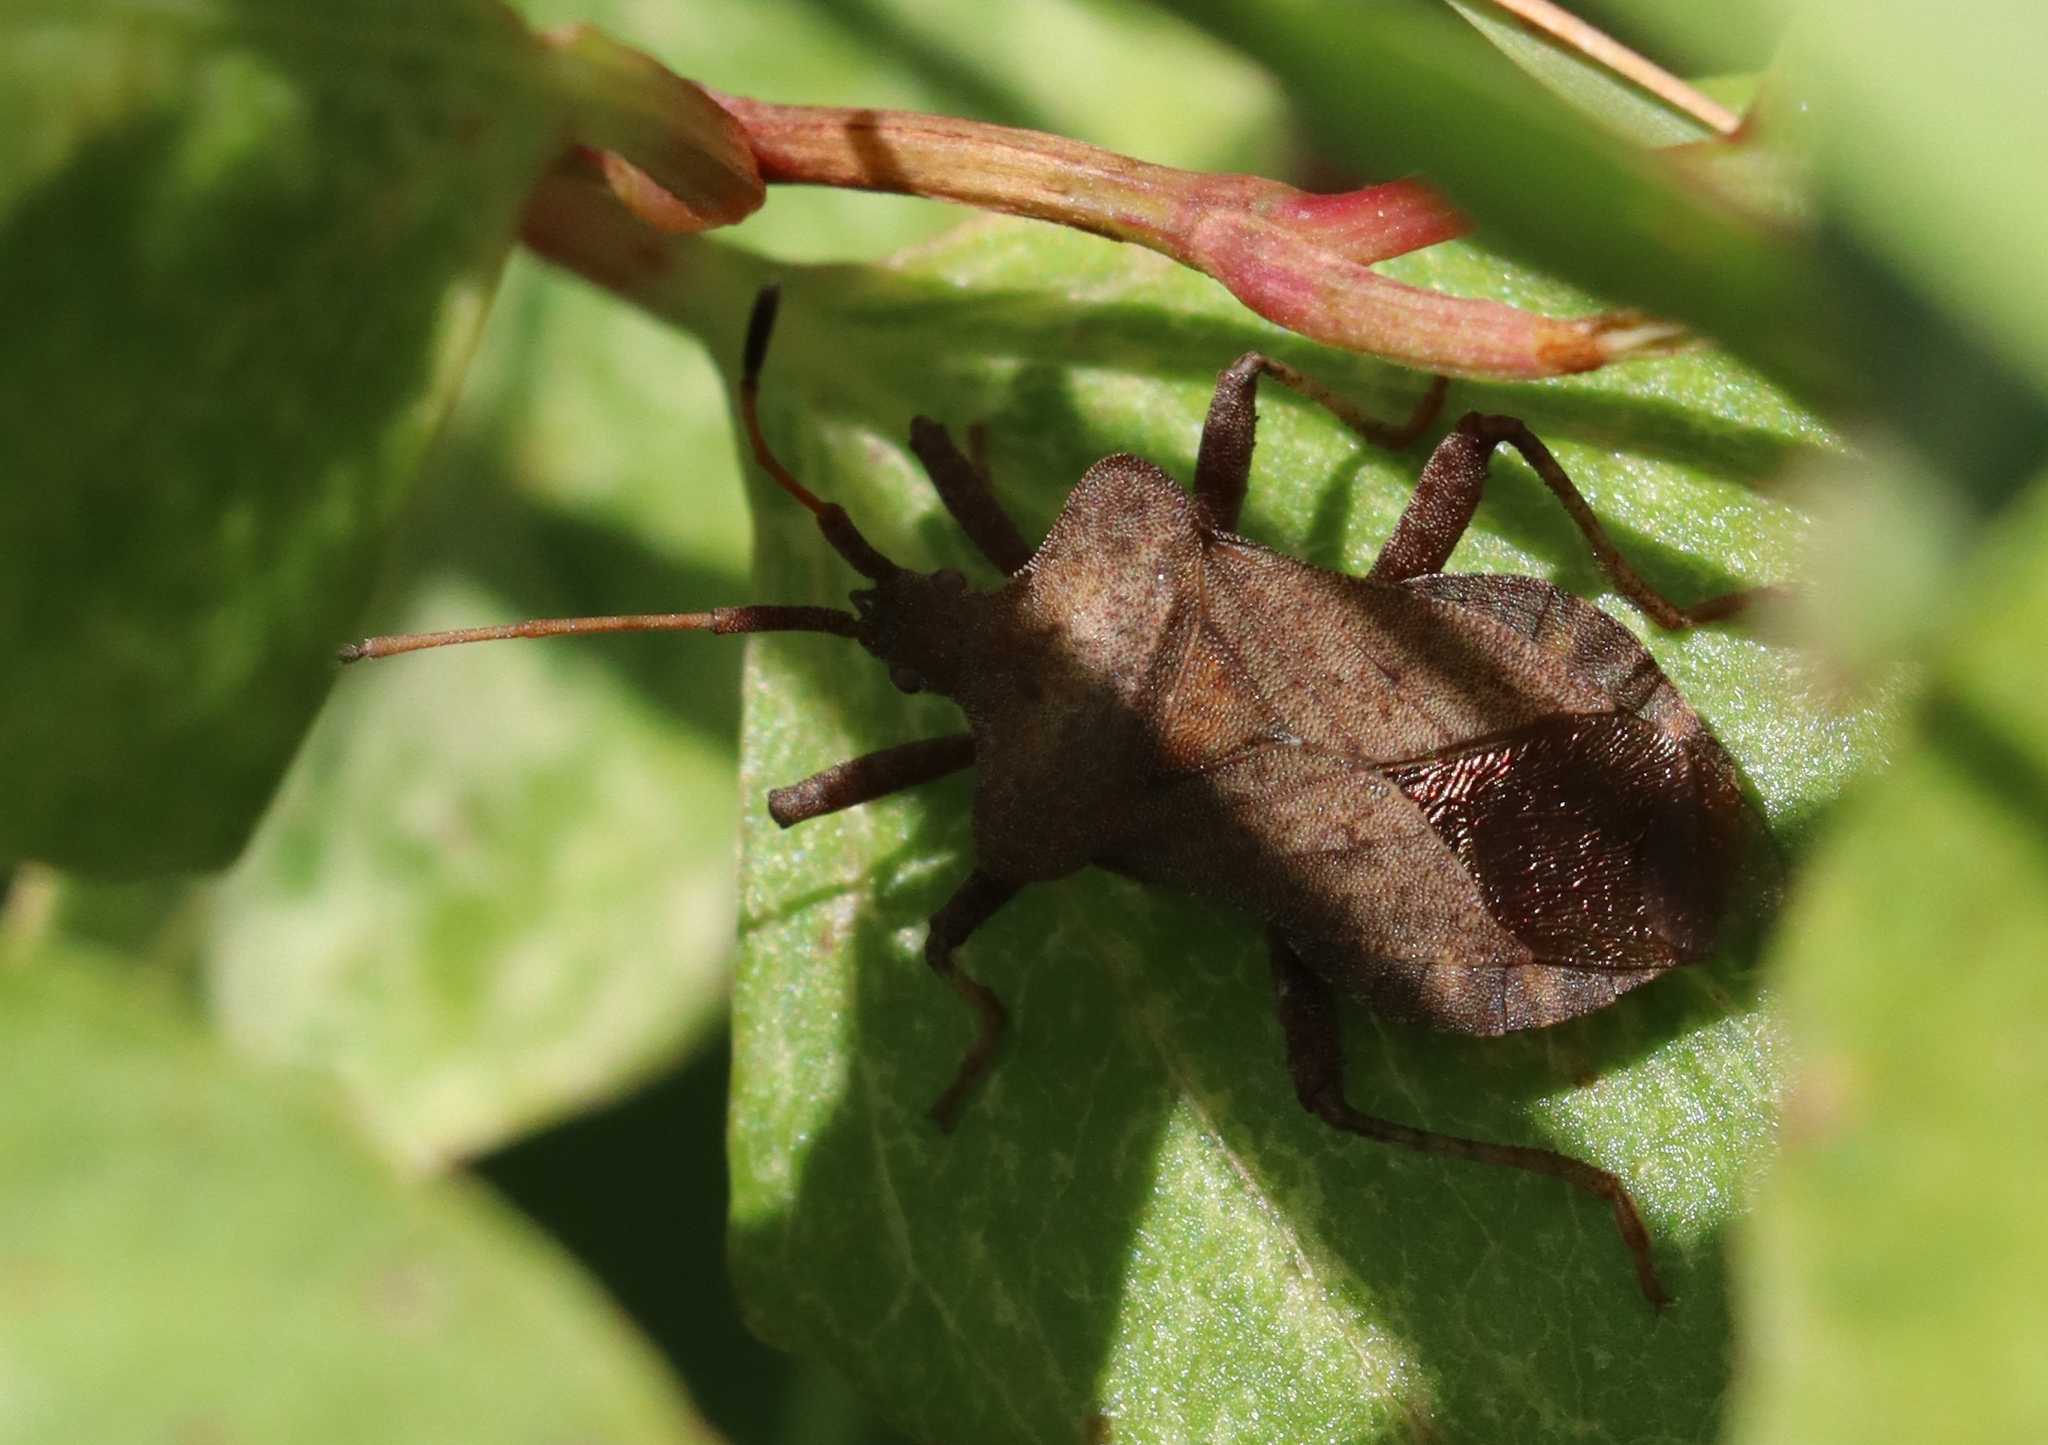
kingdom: Animalia
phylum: Arthropoda
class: Insecta
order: Hemiptera
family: Coreidae
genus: Coreus
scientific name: Coreus marginatus
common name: Dock bug
